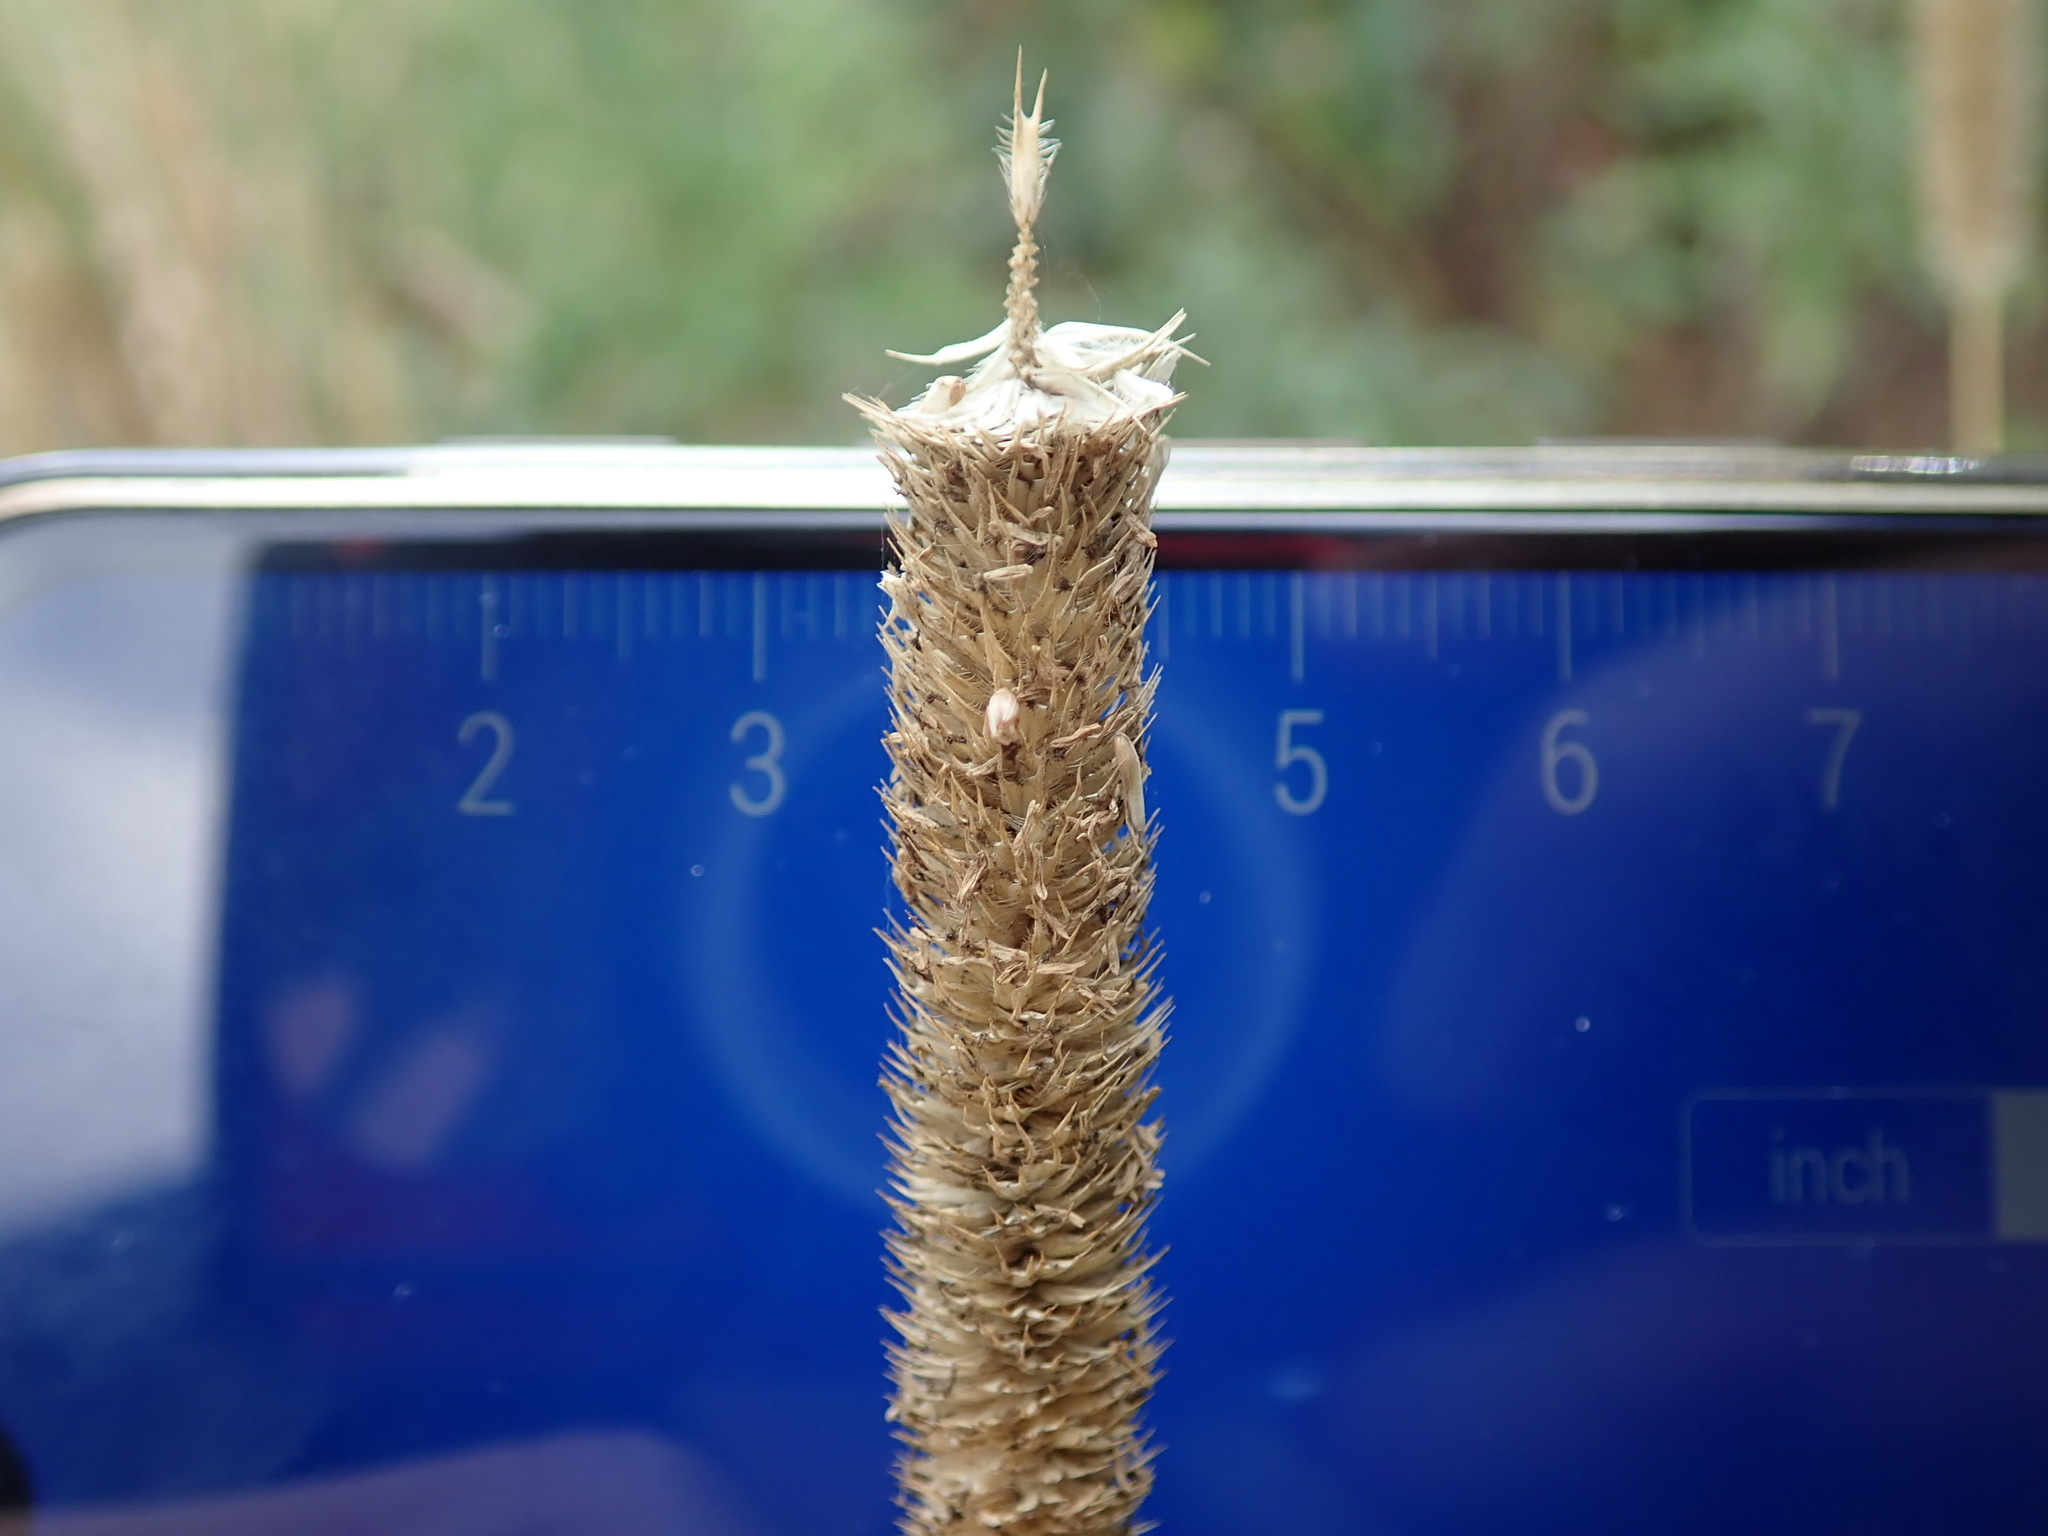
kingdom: Plantae
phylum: Tracheophyta
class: Liliopsida
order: Poales
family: Poaceae
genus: Phleum
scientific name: Phleum pratense
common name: Timothy grass
